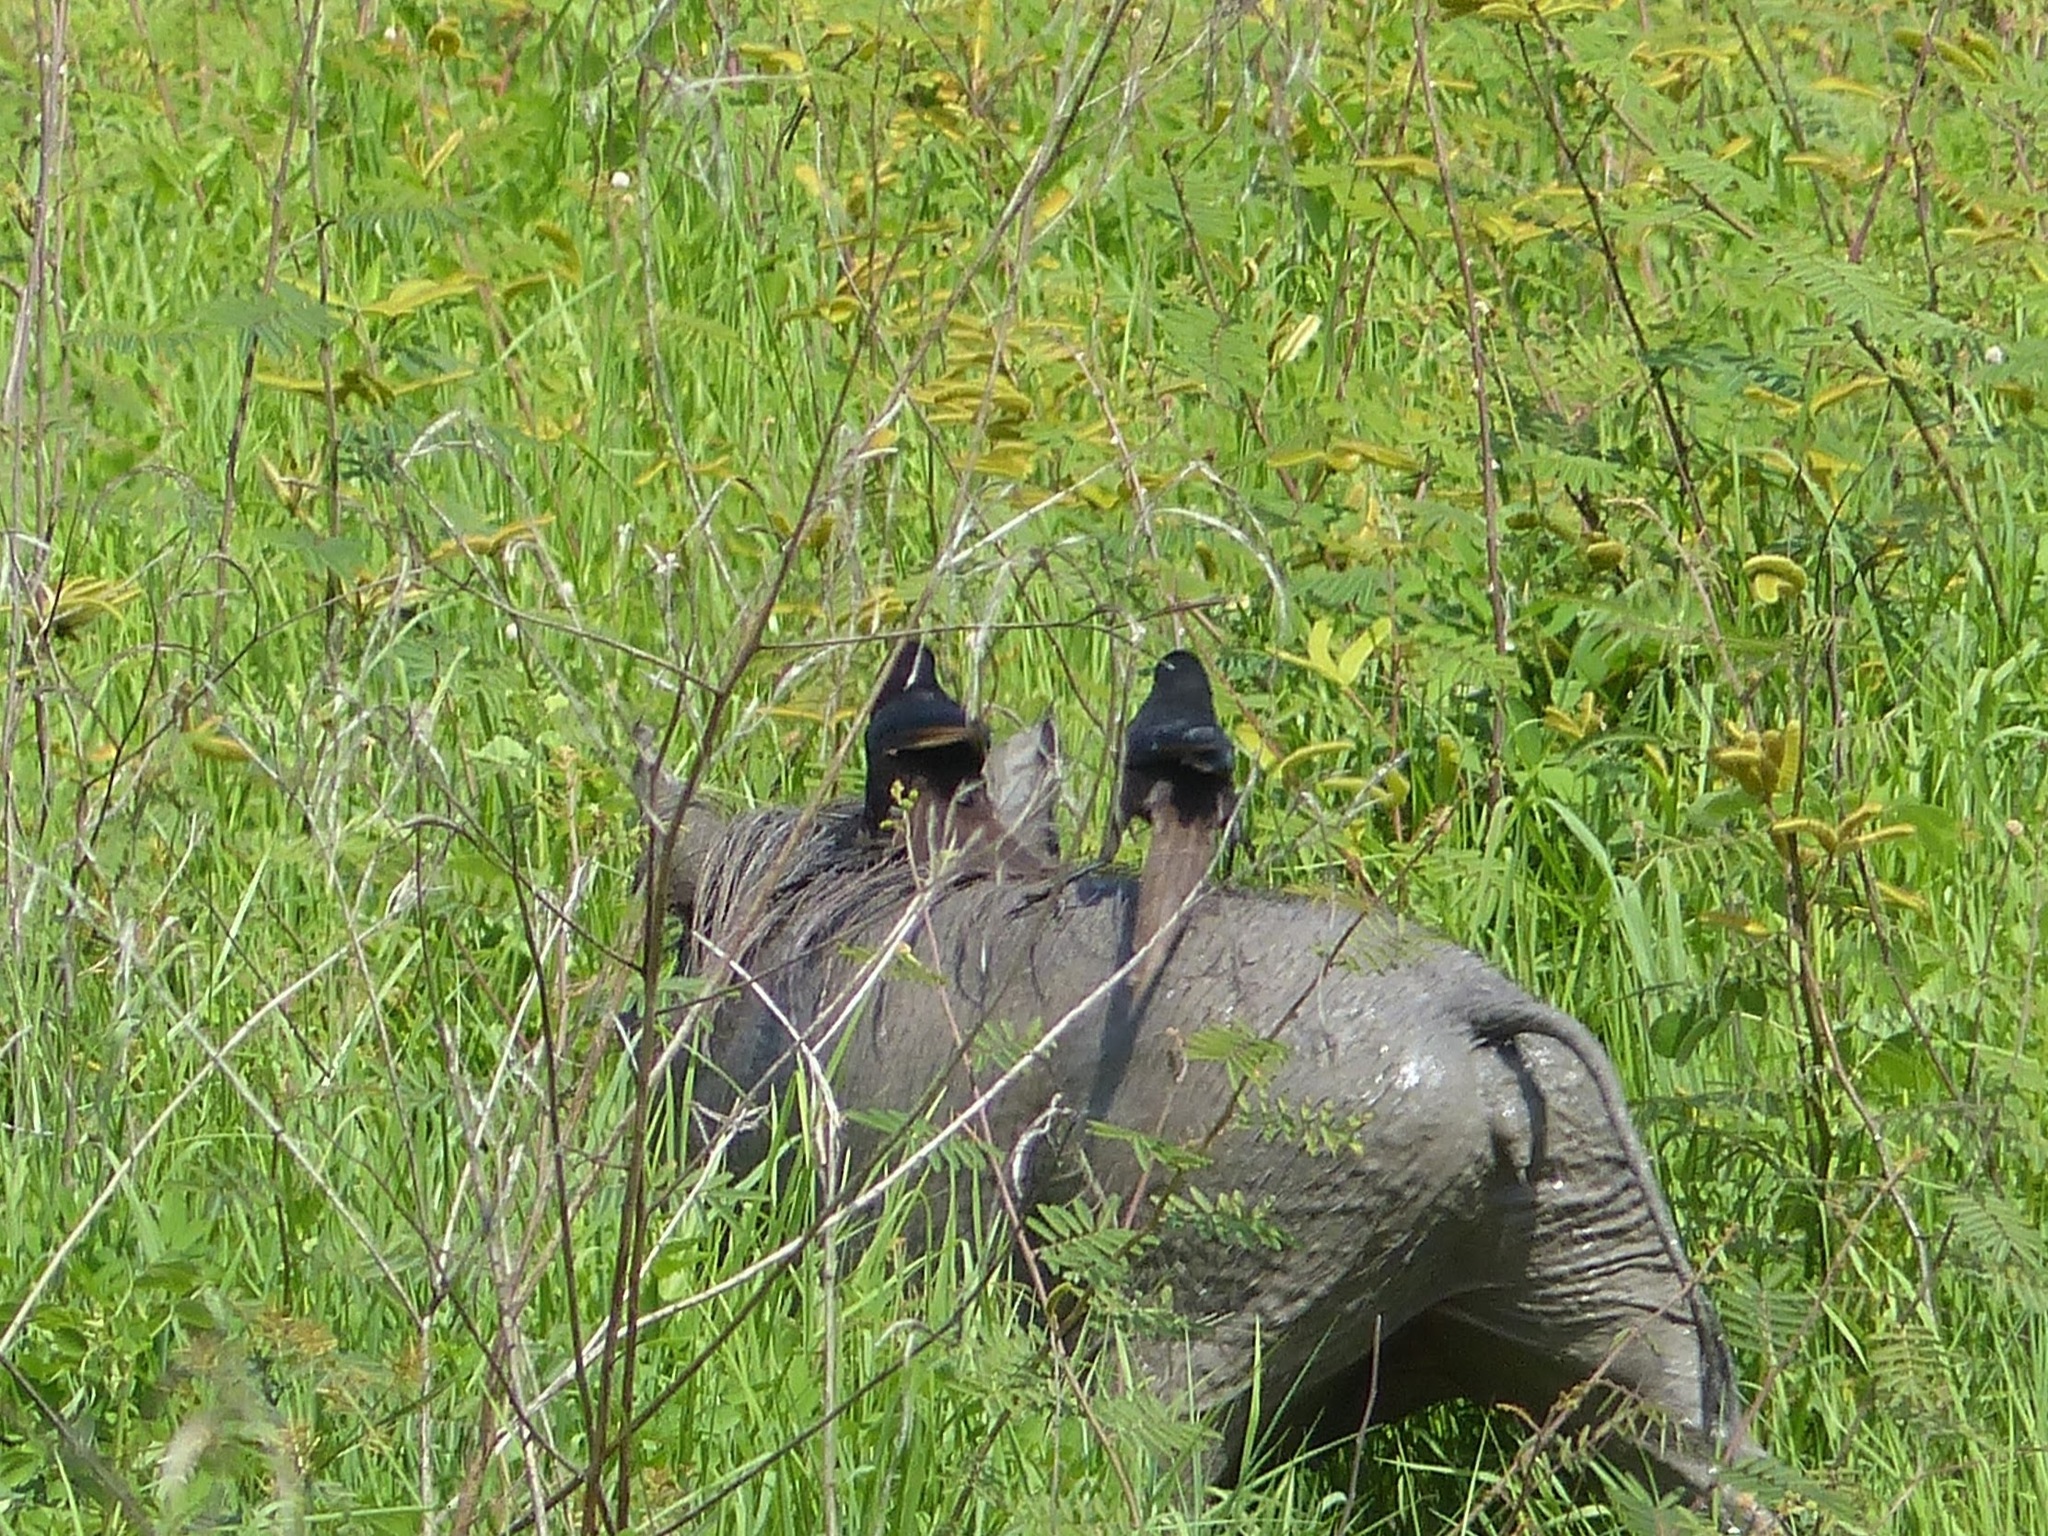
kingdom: Animalia
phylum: Chordata
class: Aves
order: Passeriformes
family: Corvidae
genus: Ptilostomus
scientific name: Ptilostomus afer
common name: Piapiac
